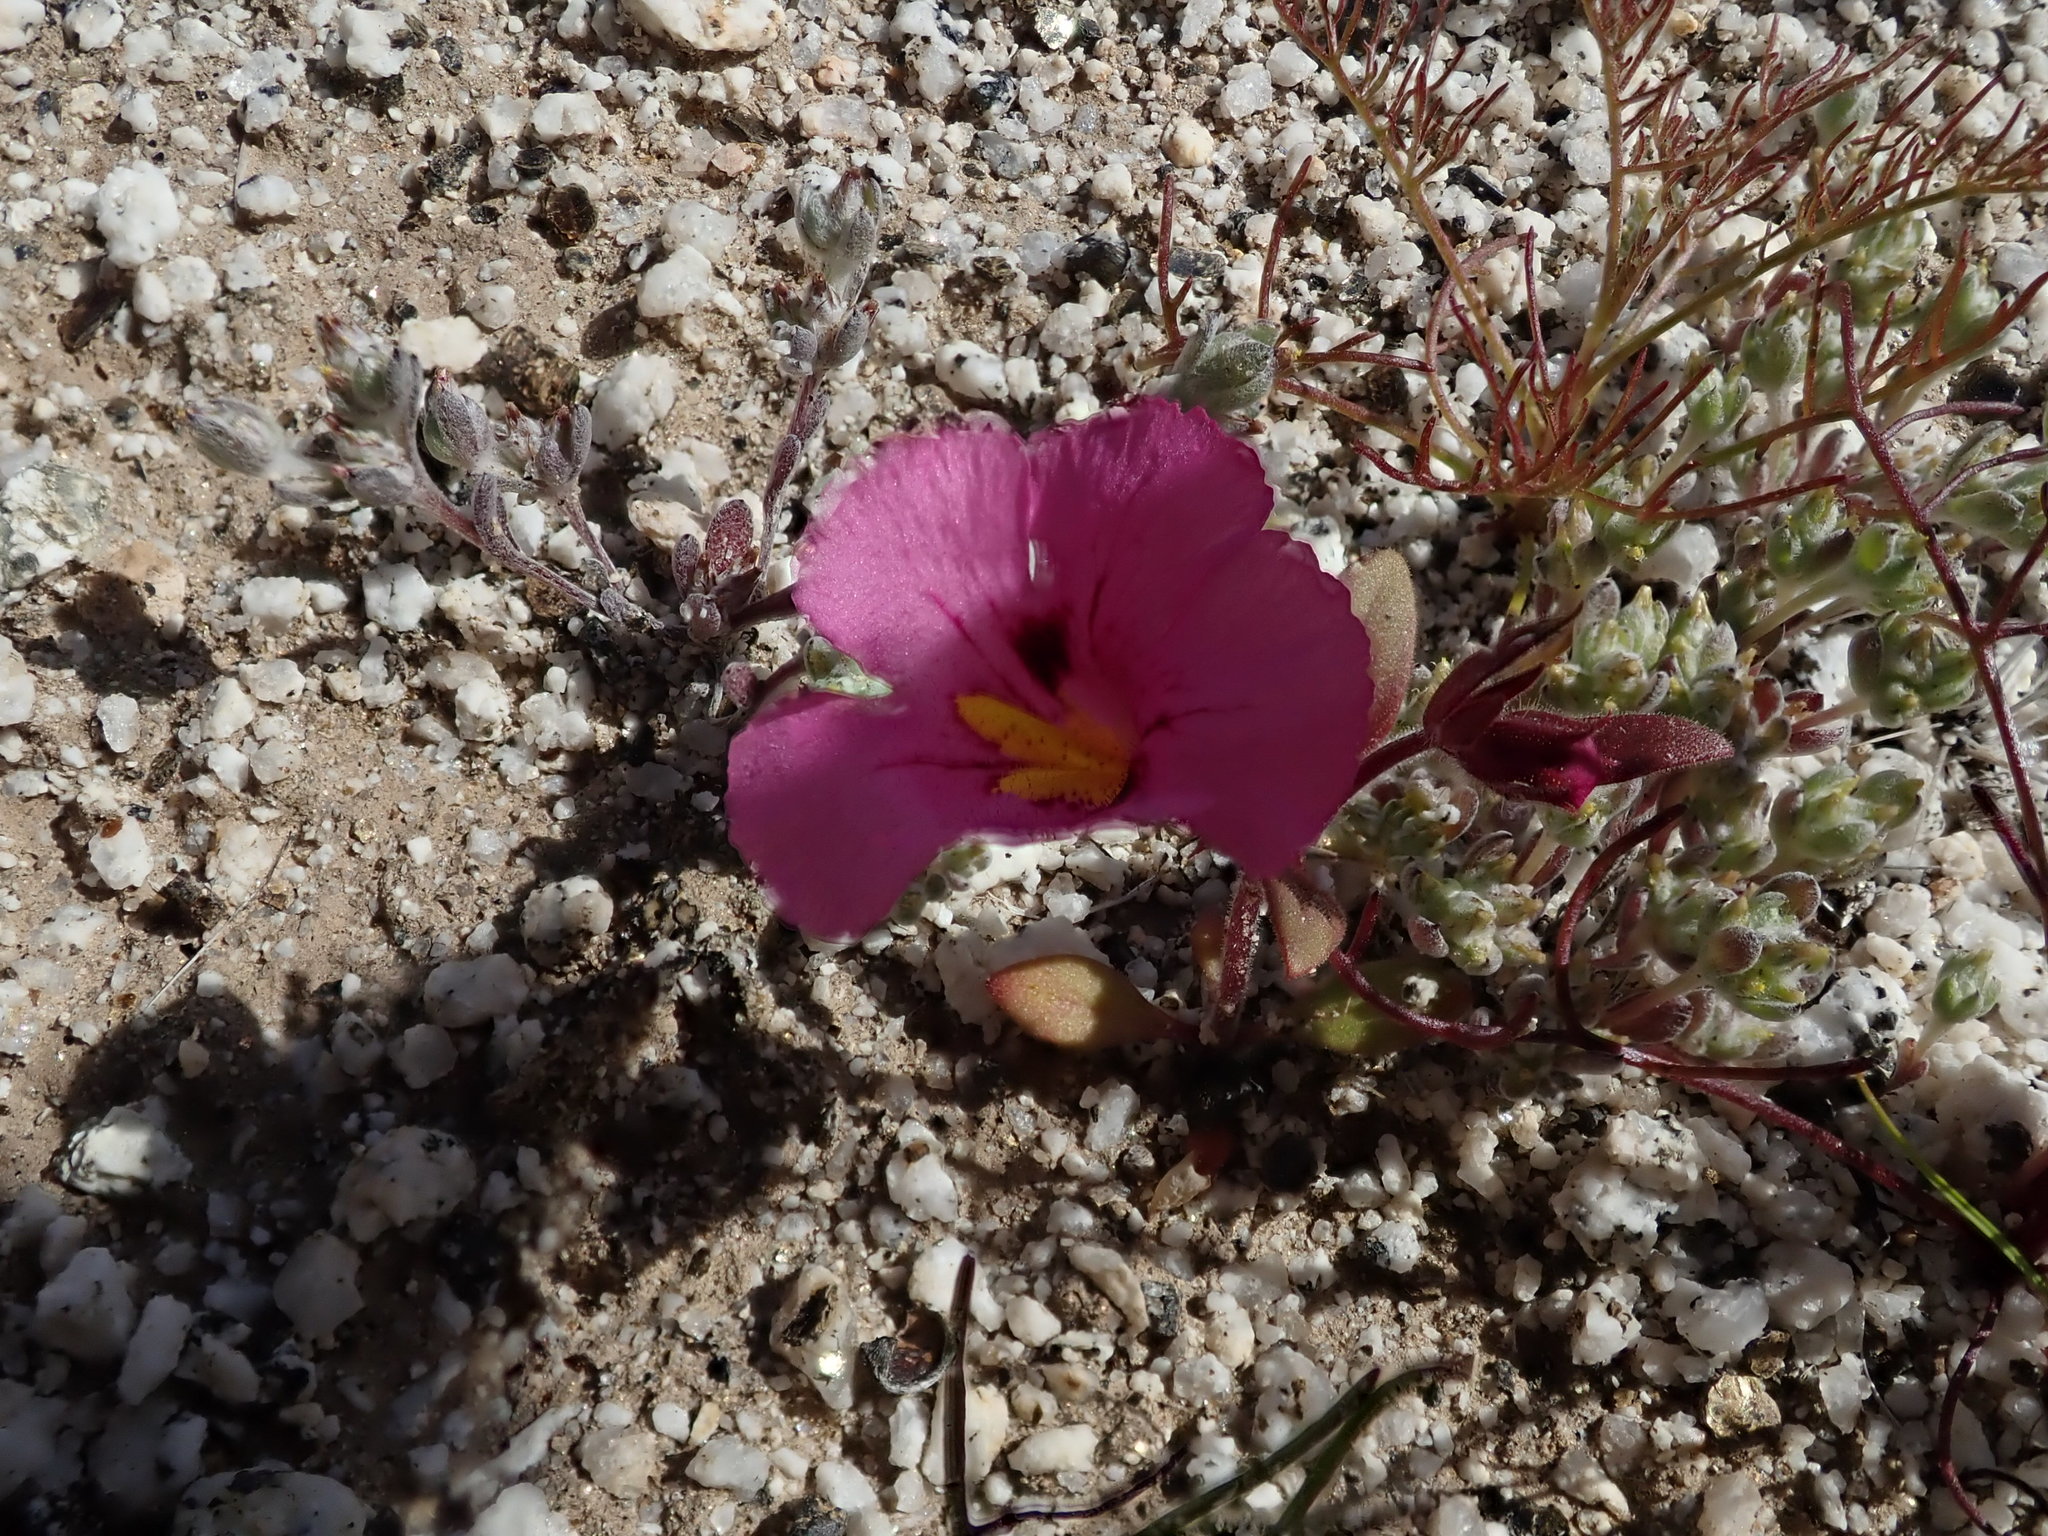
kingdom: Plantae
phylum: Tracheophyta
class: Magnoliopsida
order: Lamiales
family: Phrymaceae
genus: Diplacus
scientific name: Diplacus bigelovii
